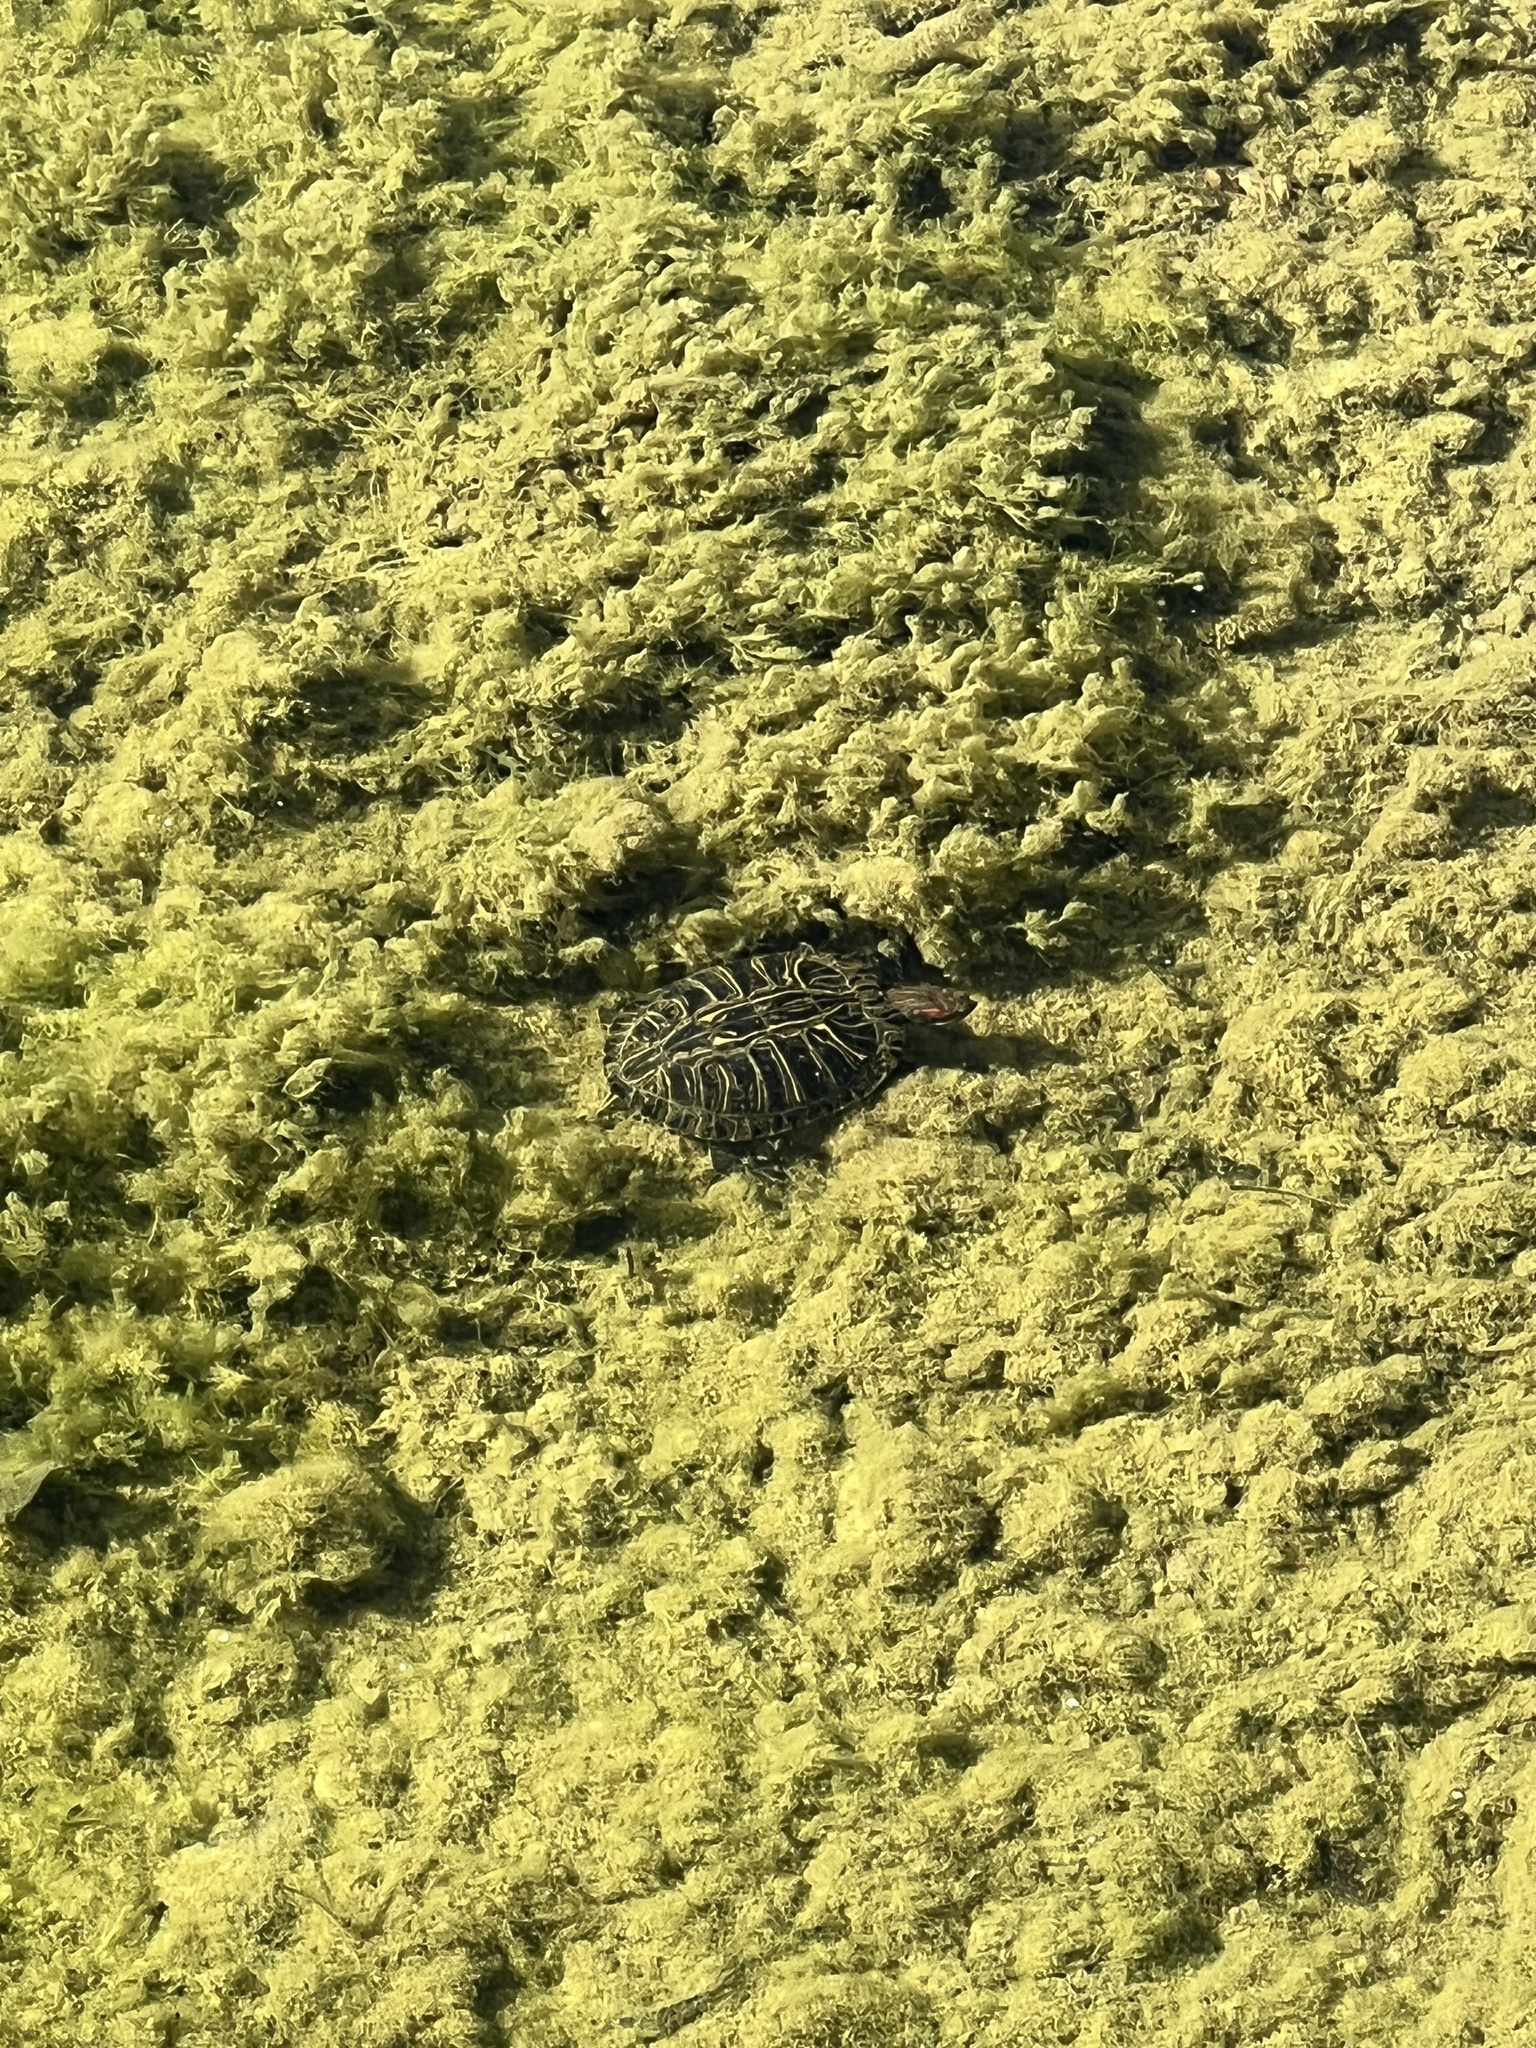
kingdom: Animalia
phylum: Chordata
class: Testudines
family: Emydidae
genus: Trachemys
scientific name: Trachemys scripta
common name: Slider
